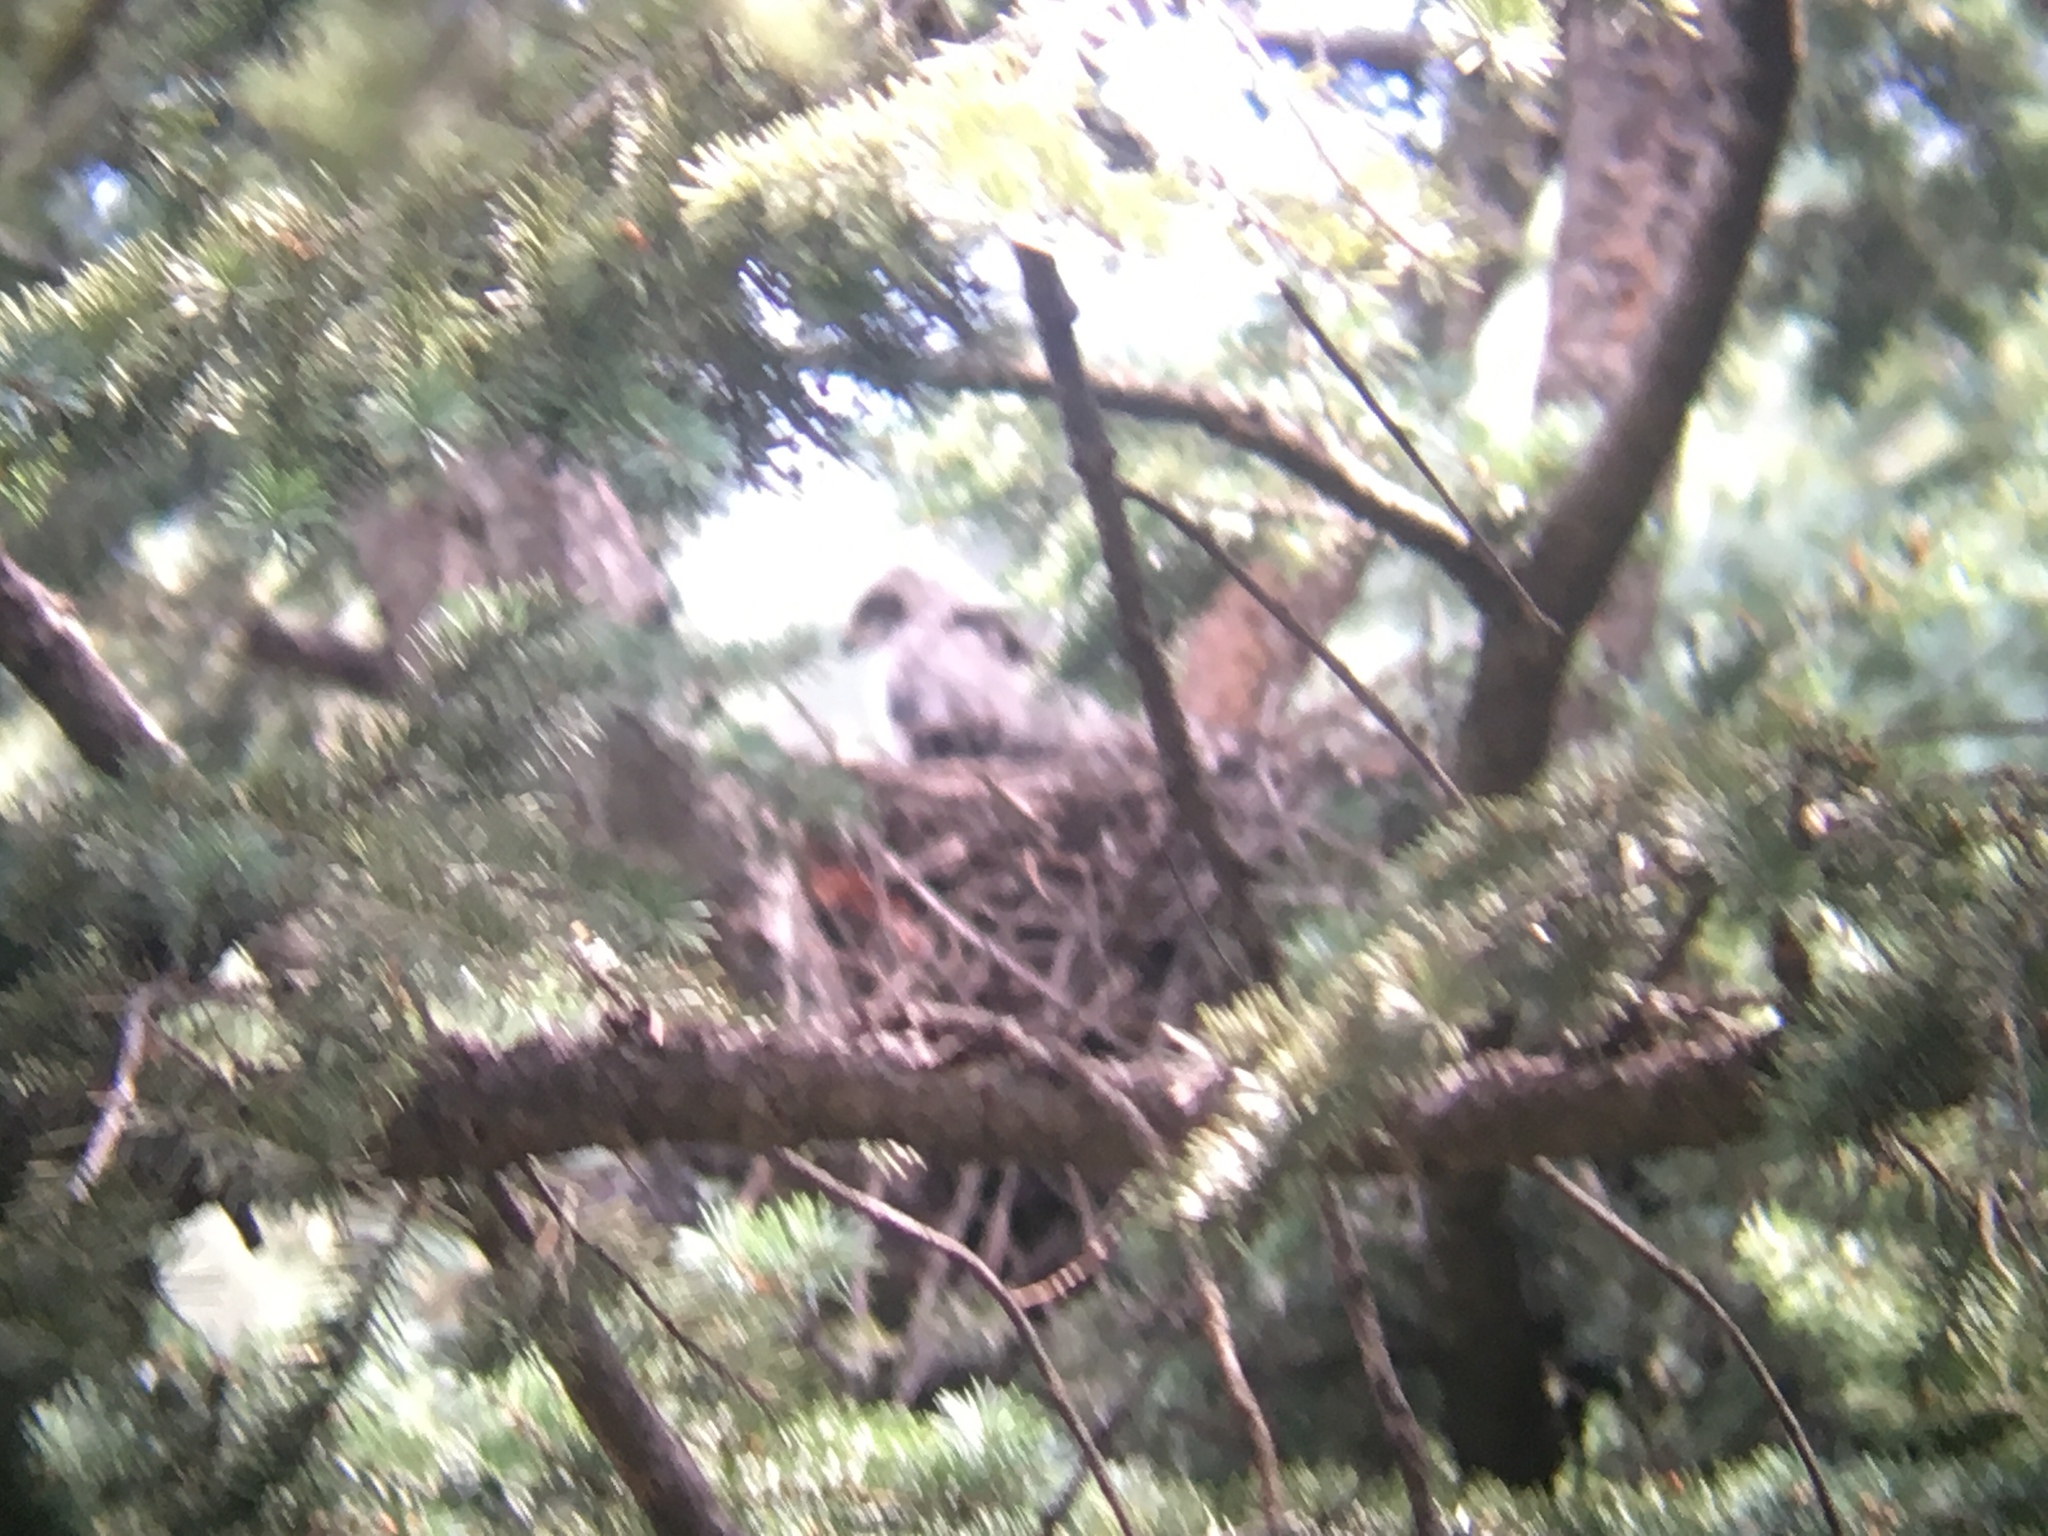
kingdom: Animalia
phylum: Chordata
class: Aves
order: Accipitriformes
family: Accipitridae
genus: Accipiter
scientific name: Accipiter cooperii
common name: Cooper's hawk
